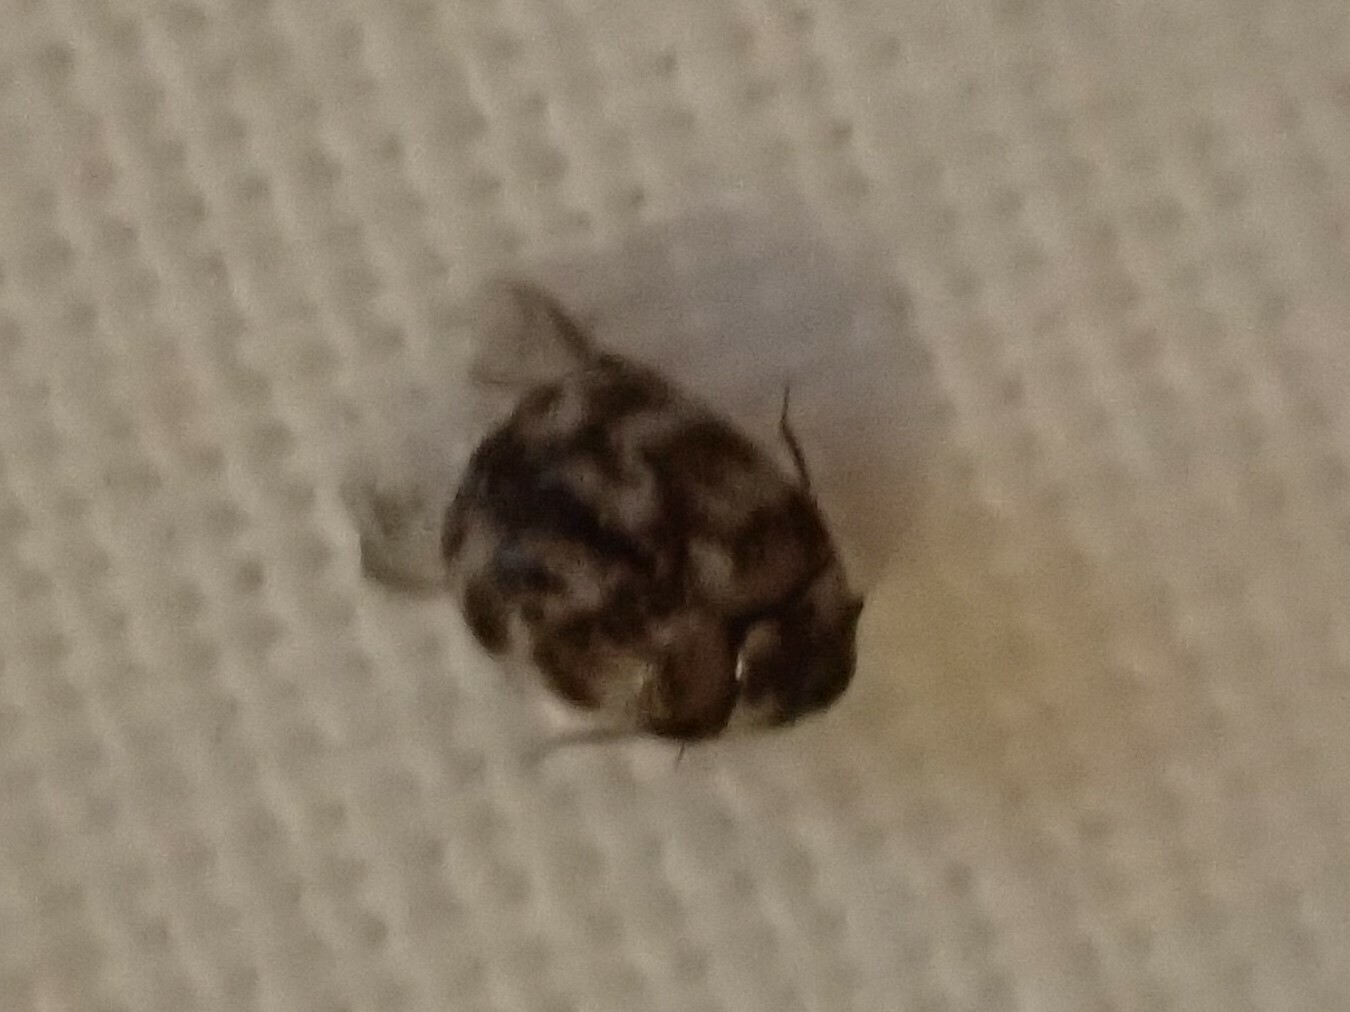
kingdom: Animalia
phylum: Arthropoda
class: Insecta
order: Coleoptera
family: Dermestidae
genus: Anthrenus
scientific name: Anthrenus verbasci
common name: Varied carpet beetle
